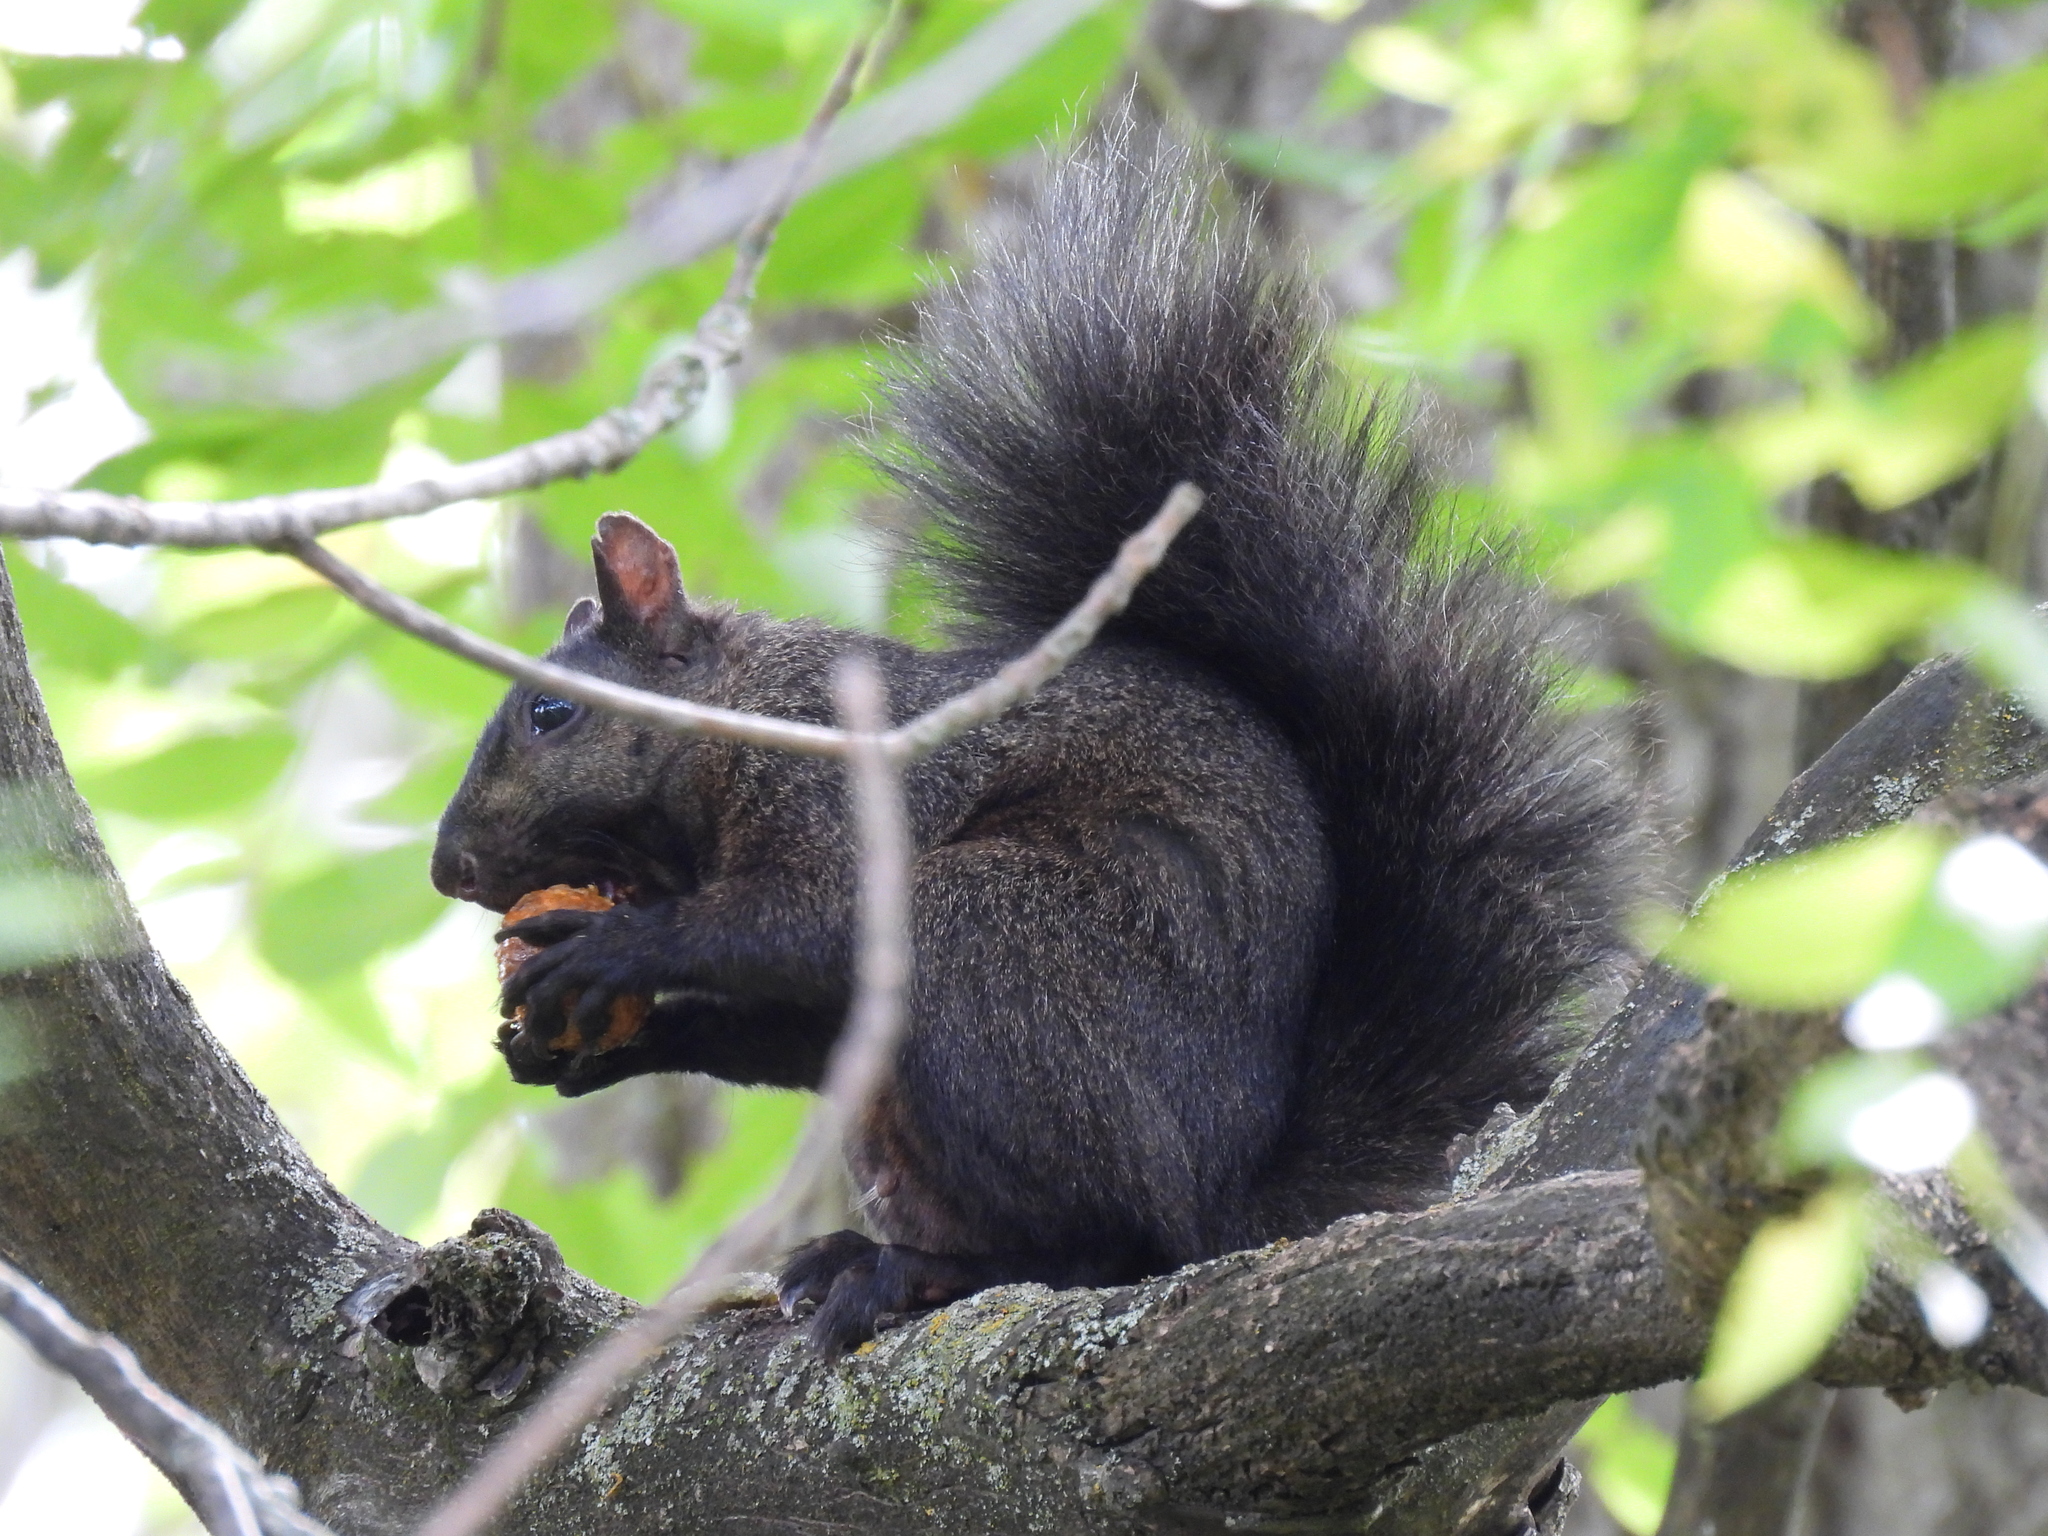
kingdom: Animalia
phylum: Chordata
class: Mammalia
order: Rodentia
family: Sciuridae
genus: Sciurus
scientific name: Sciurus carolinensis
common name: Eastern gray squirrel
